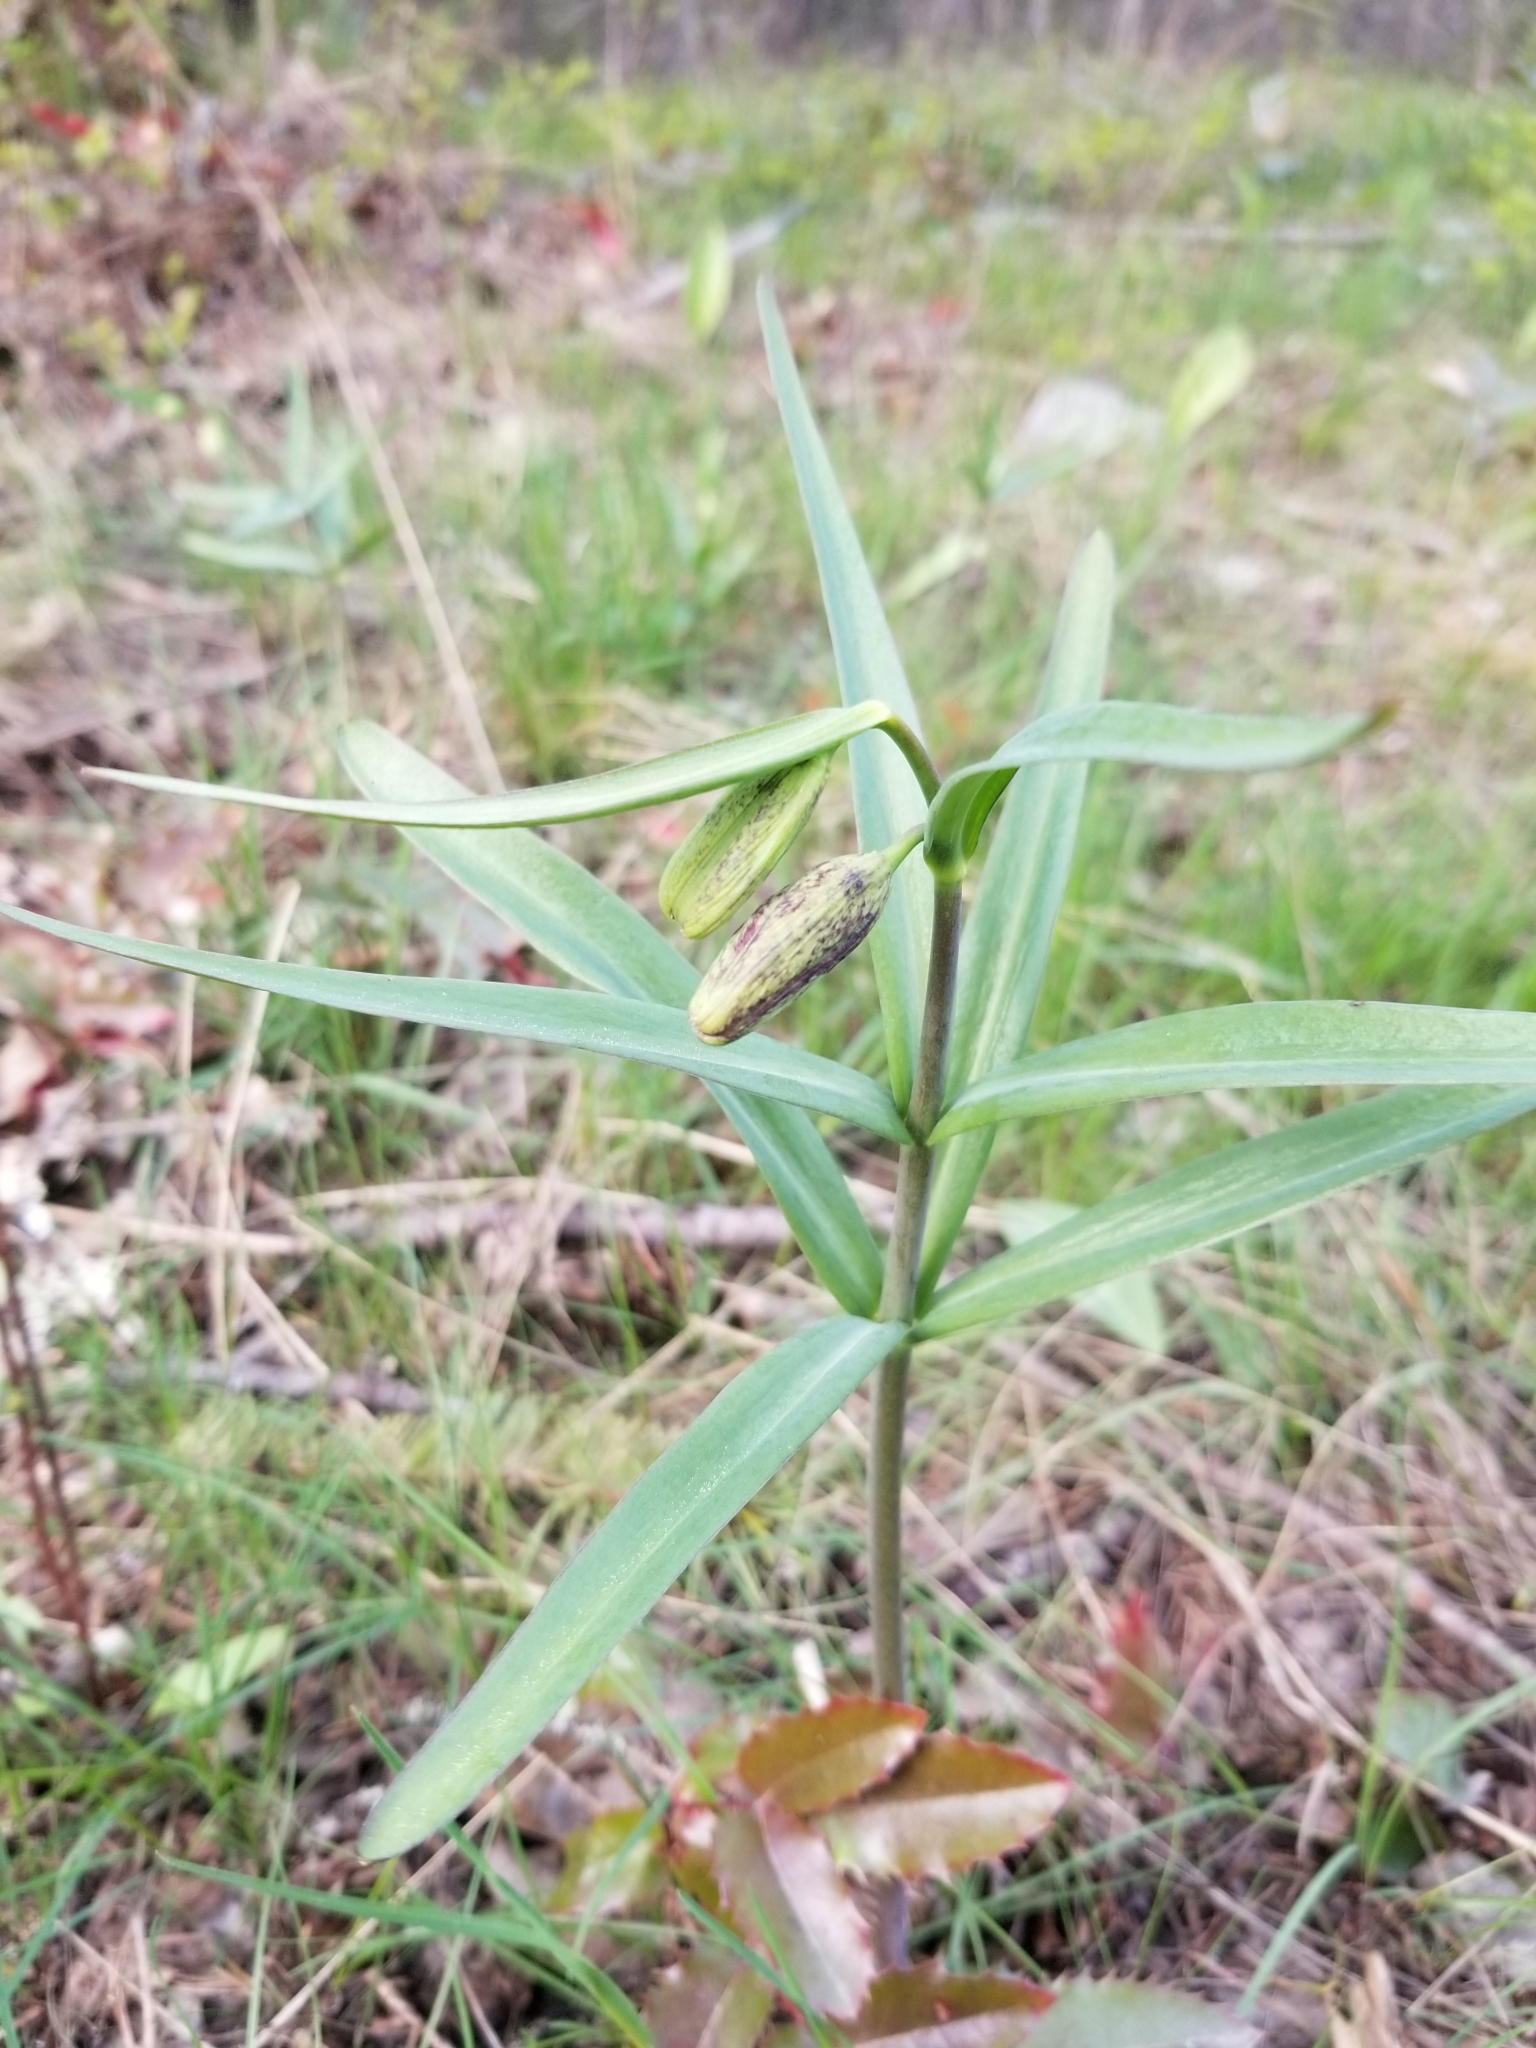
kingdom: Plantae
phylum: Tracheophyta
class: Liliopsida
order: Liliales
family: Liliaceae
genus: Fritillaria
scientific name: Fritillaria affinis
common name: Ojai fritillary
